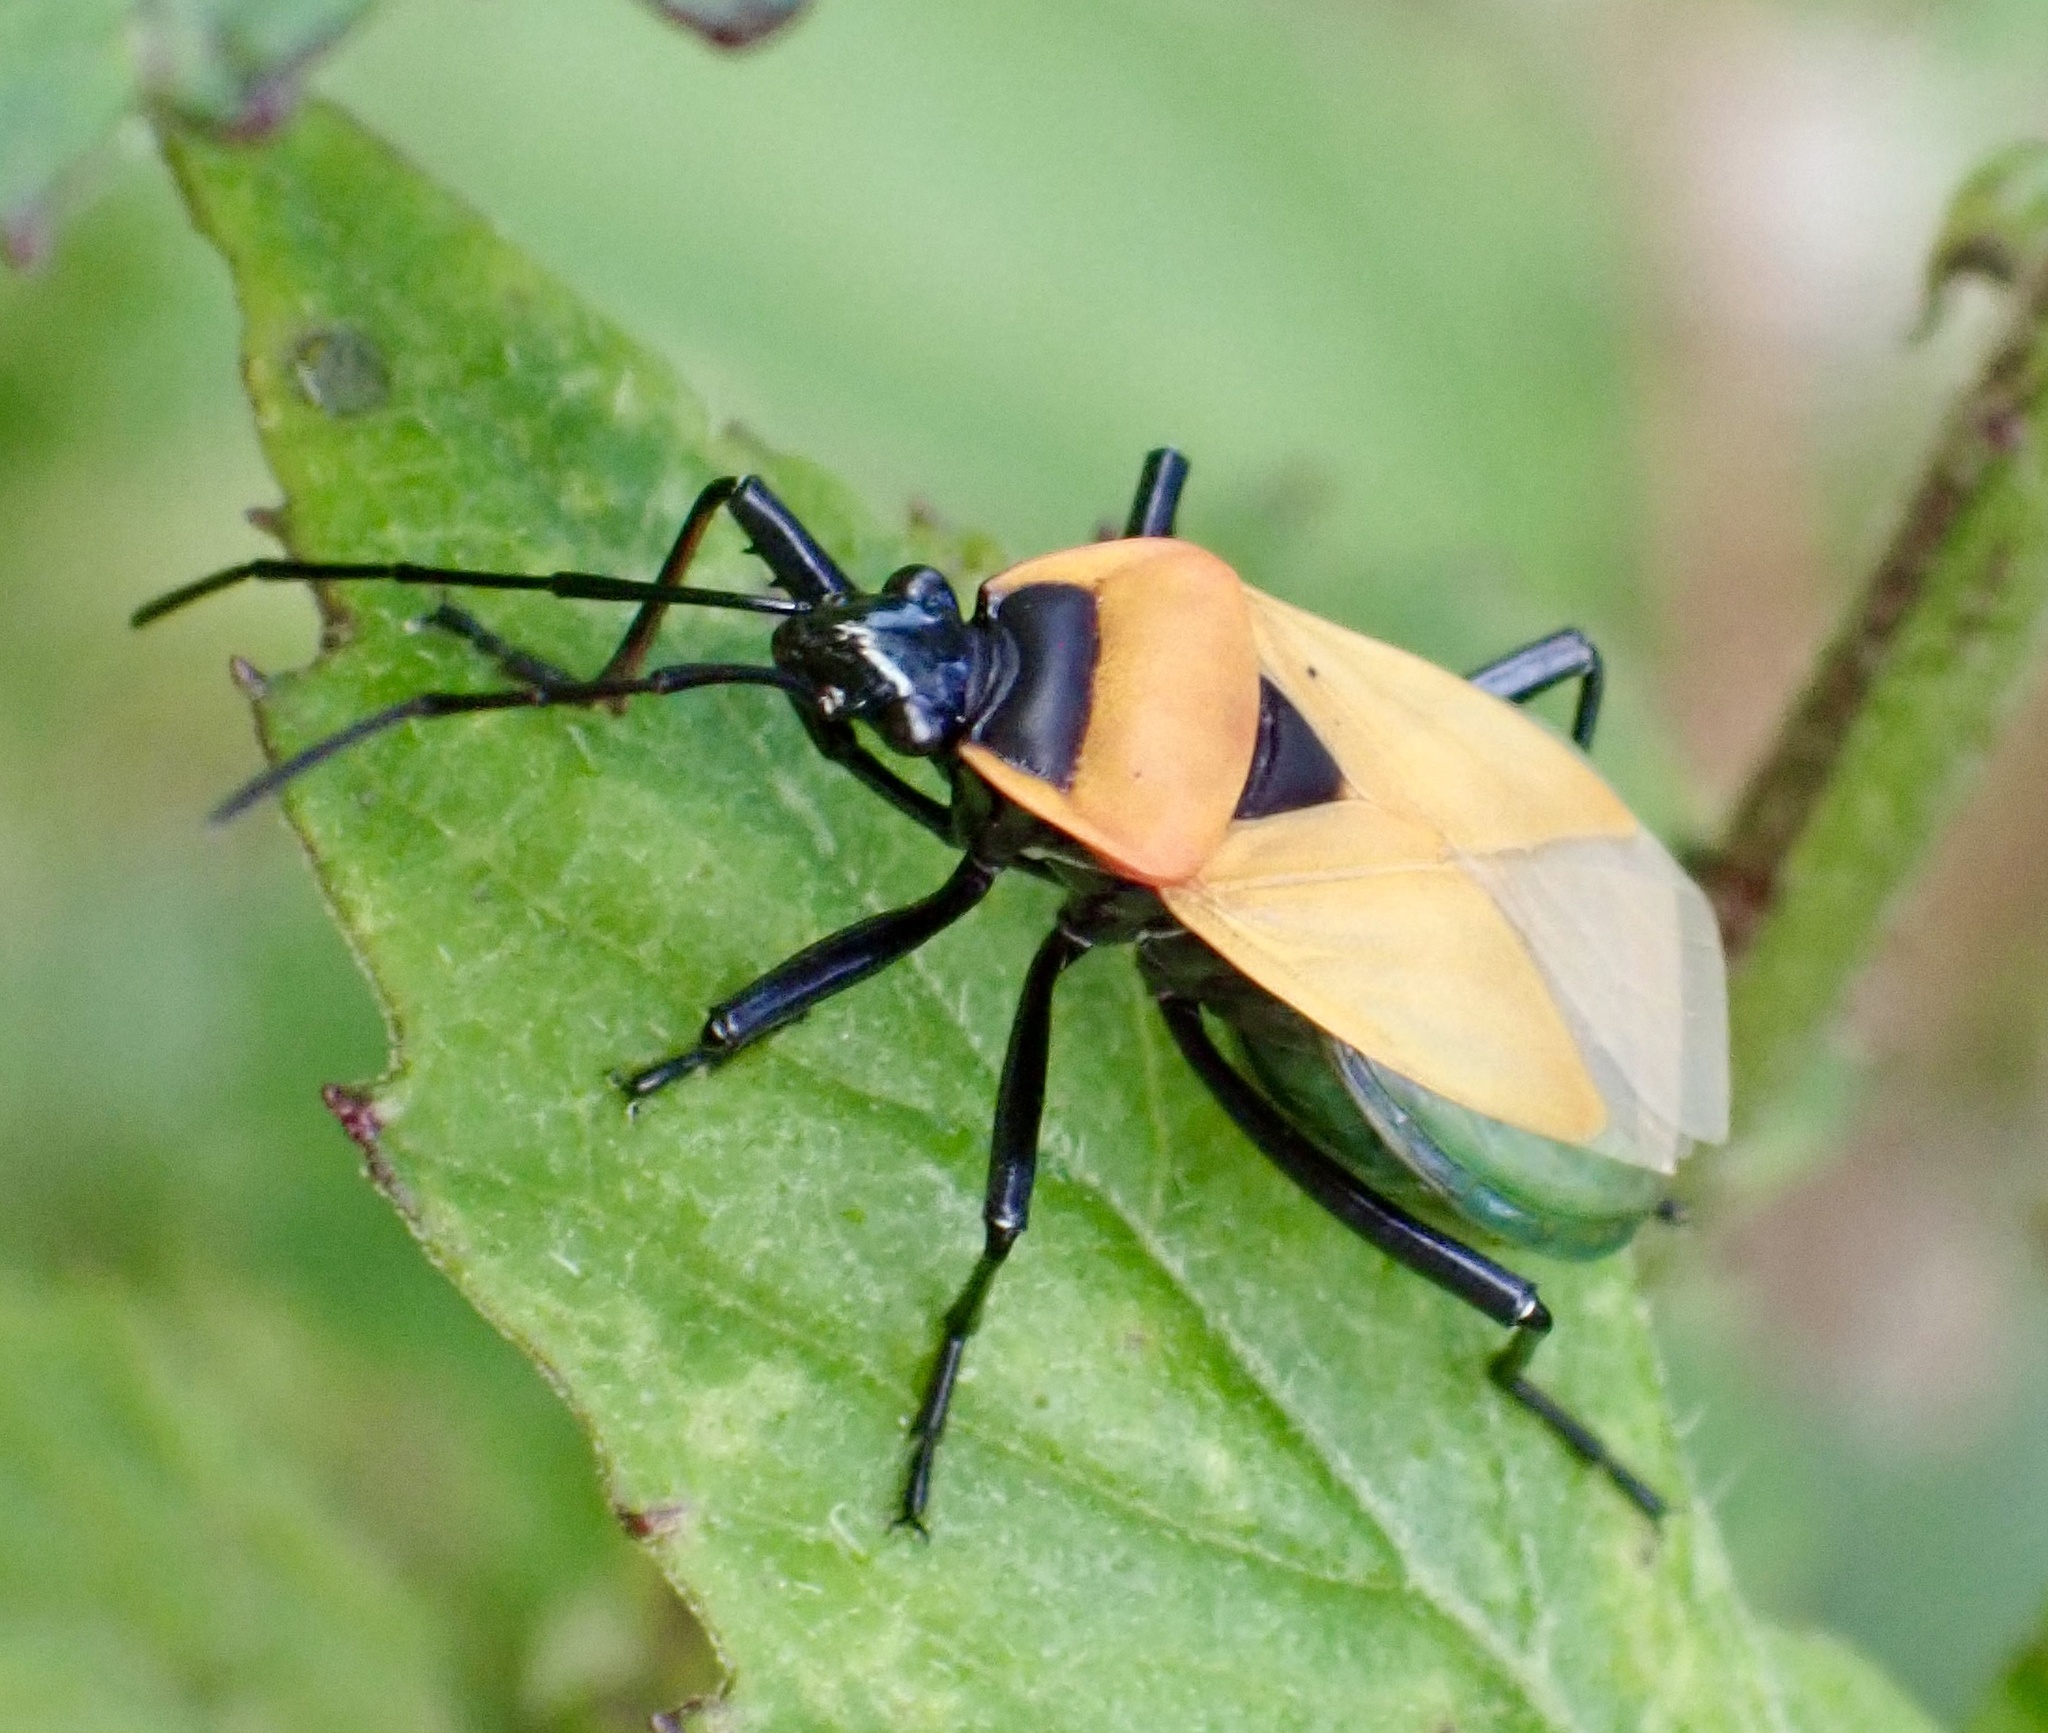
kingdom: Animalia
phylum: Arthropoda
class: Insecta
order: Hemiptera
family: Pyrrhocoridae
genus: Dindymus
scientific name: Dindymus
